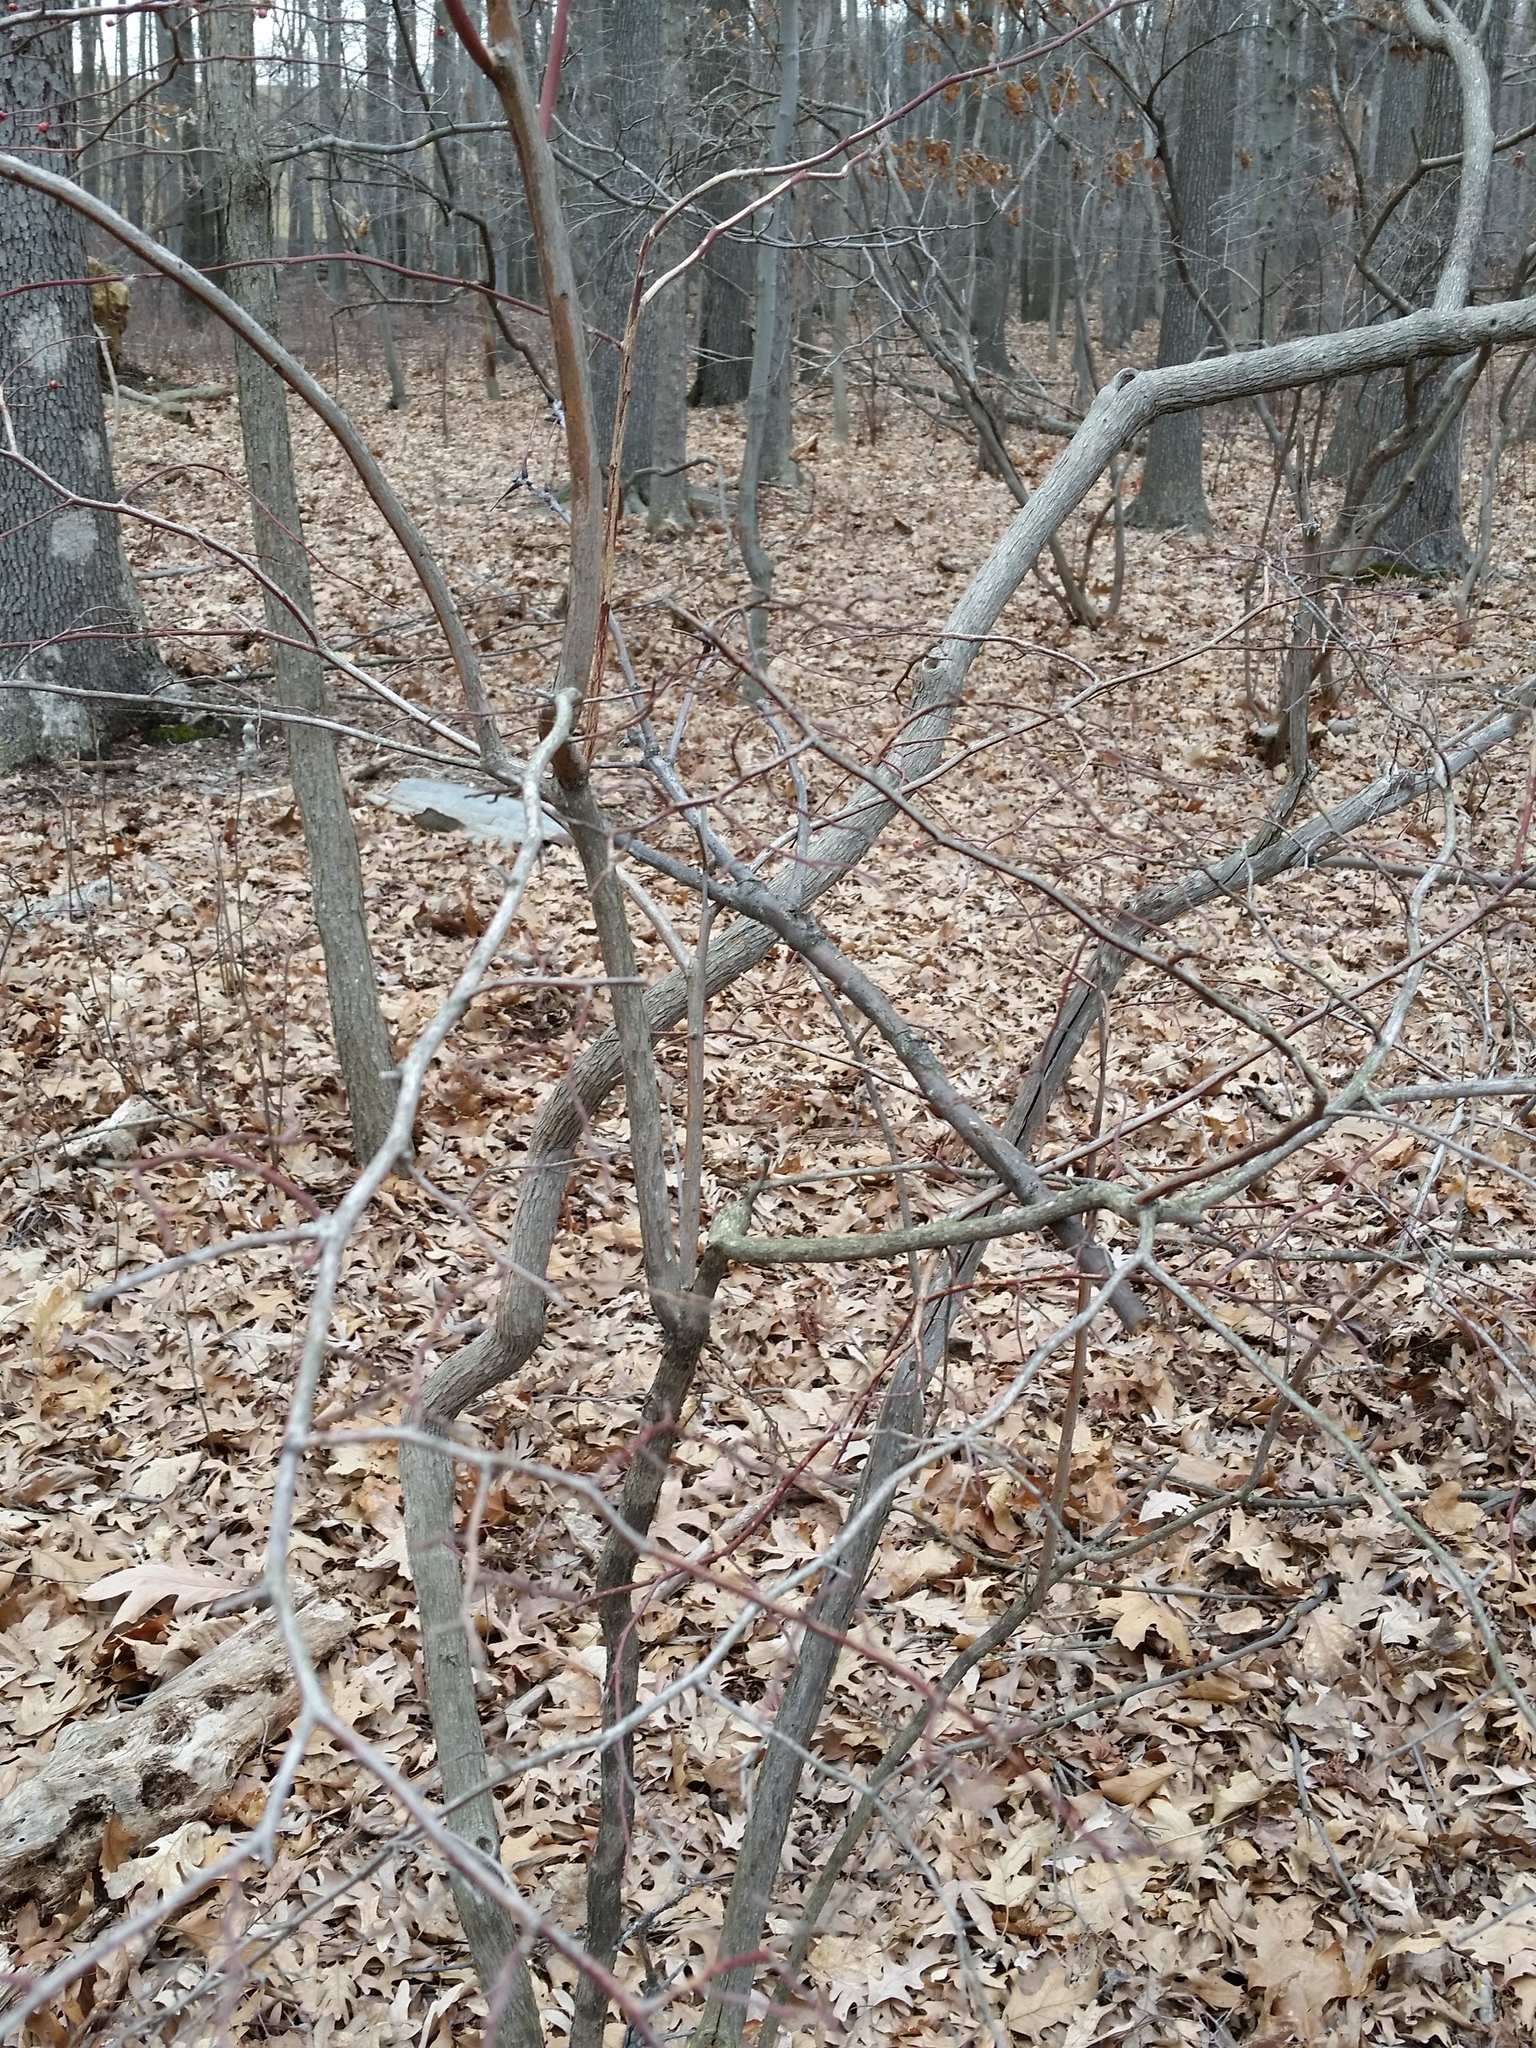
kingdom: Plantae
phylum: Tracheophyta
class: Magnoliopsida
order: Ericales
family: Ericaceae
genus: Vaccinium
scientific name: Vaccinium corymbosum
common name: Blueberry
